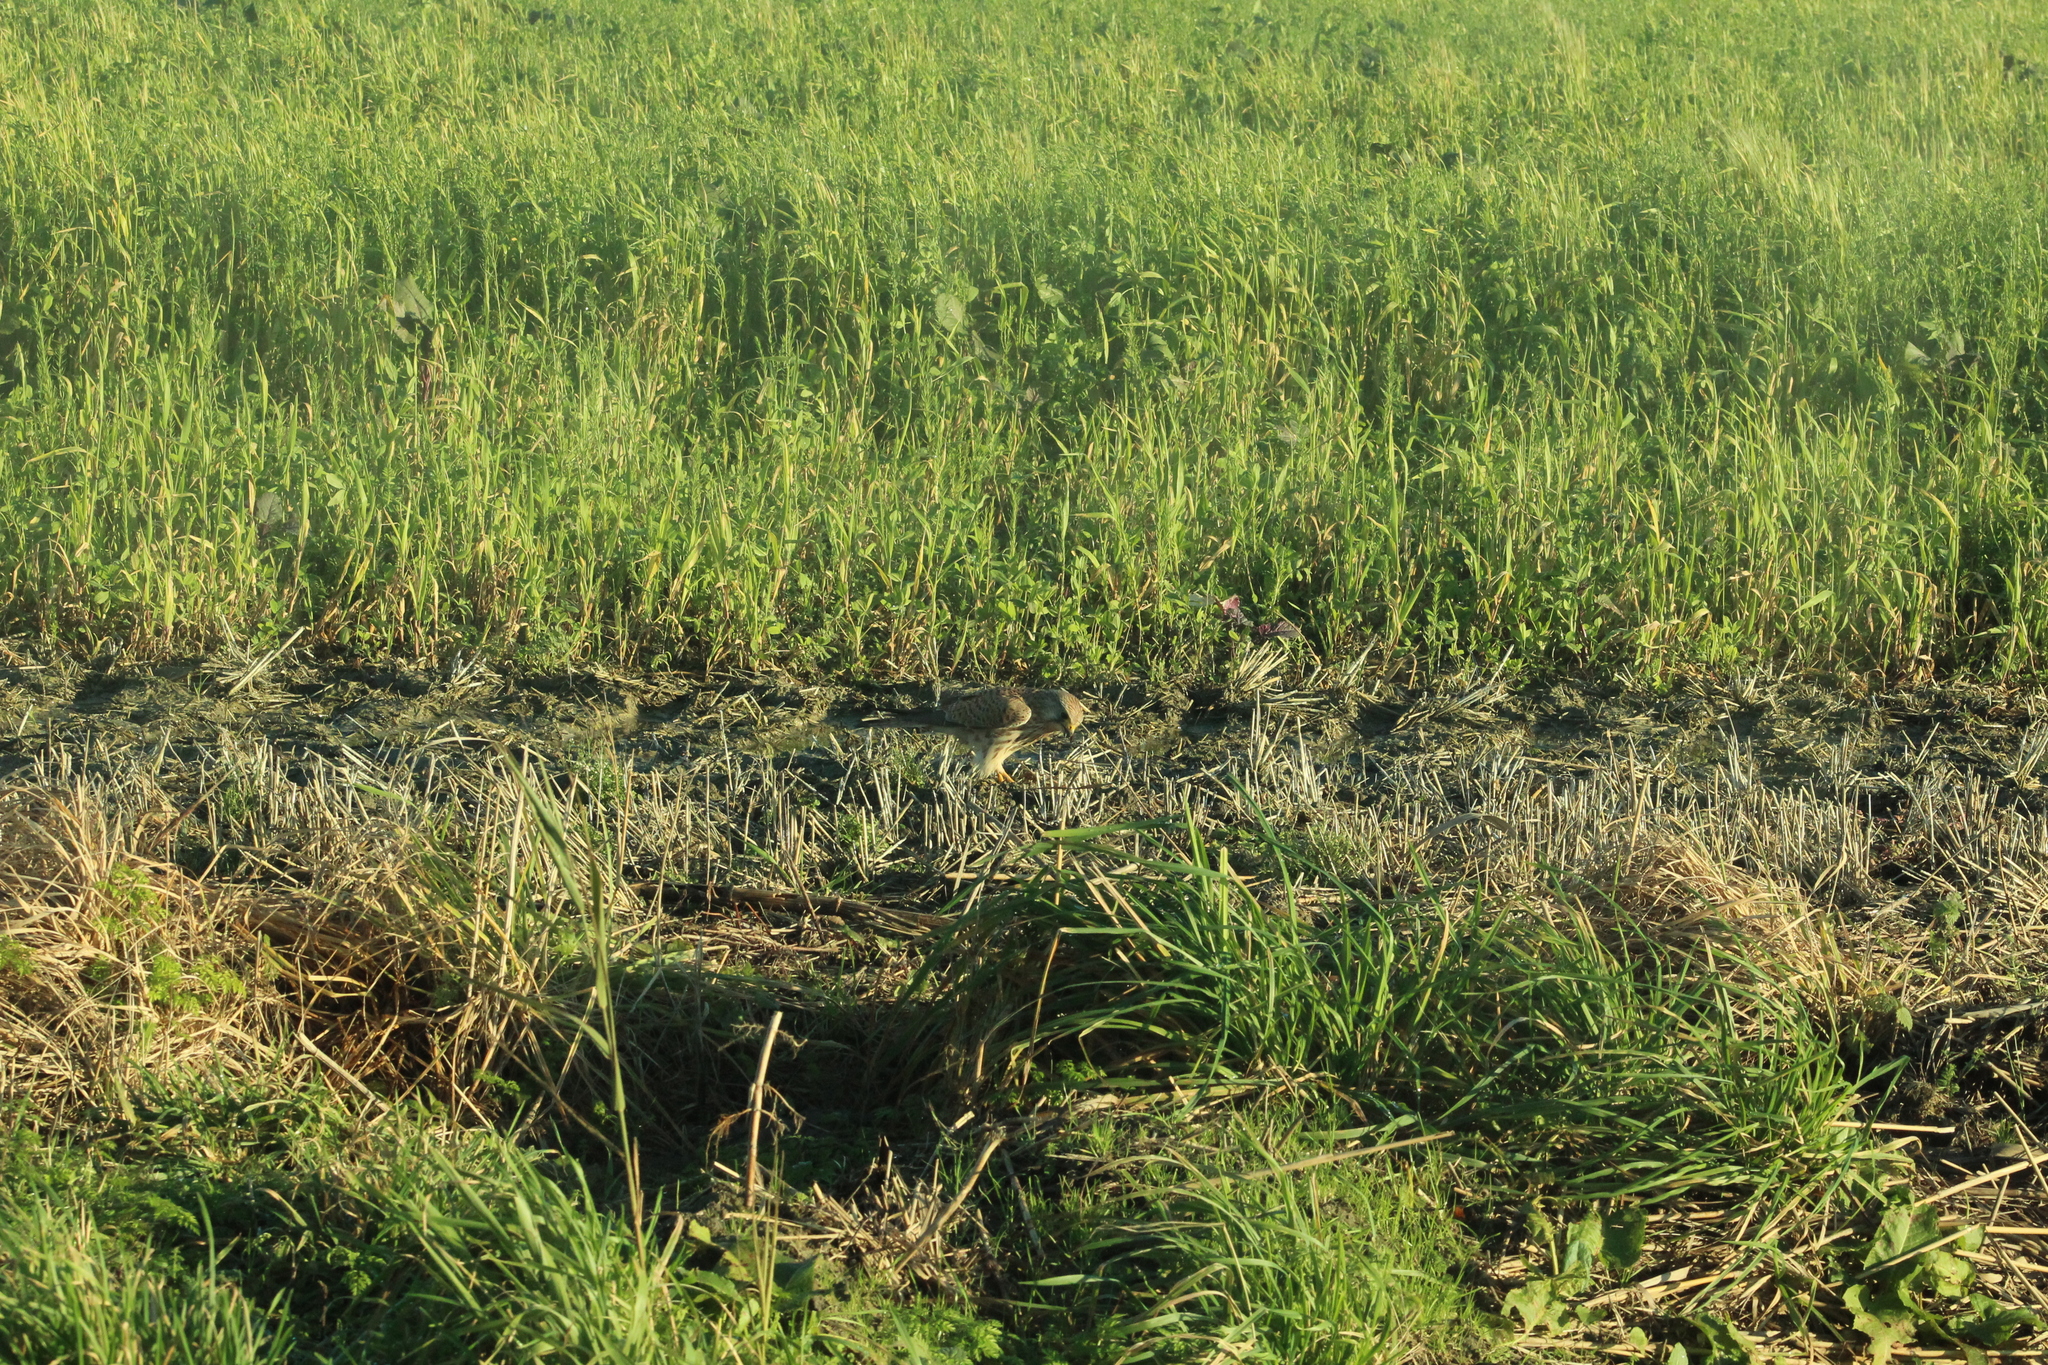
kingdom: Animalia
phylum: Chordata
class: Aves
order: Falconiformes
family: Falconidae
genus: Falco
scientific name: Falco tinnunculus
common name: Common kestrel
